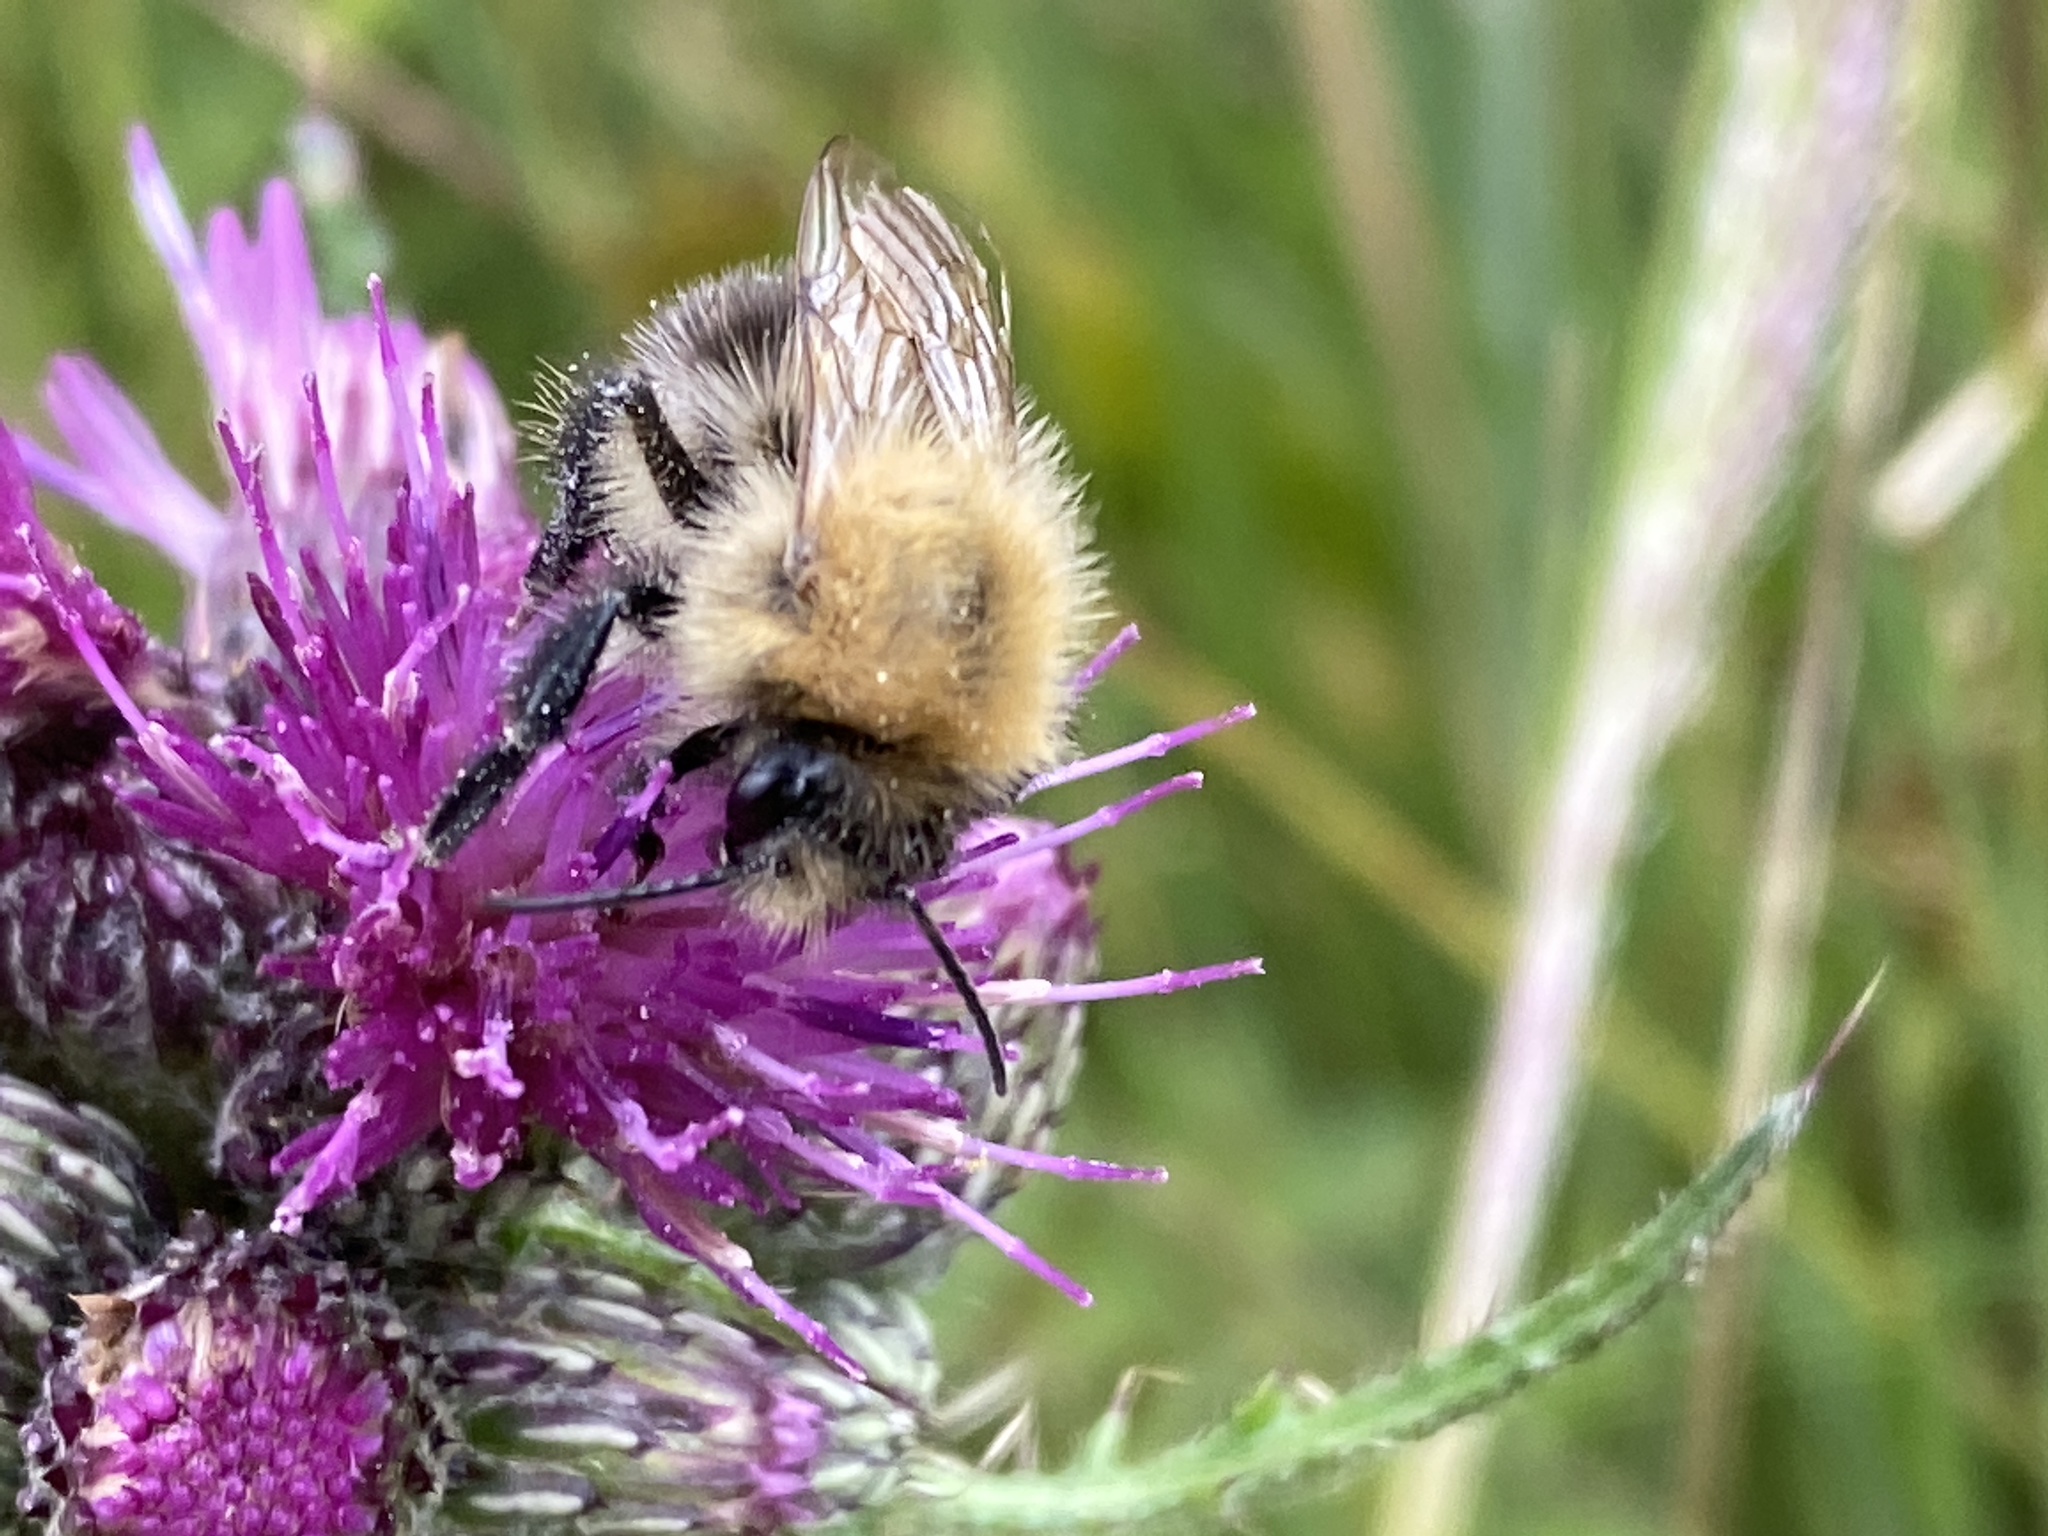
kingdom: Animalia
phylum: Arthropoda
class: Insecta
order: Hymenoptera
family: Apidae
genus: Bombus
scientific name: Bombus pascuorum
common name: Common carder bee
